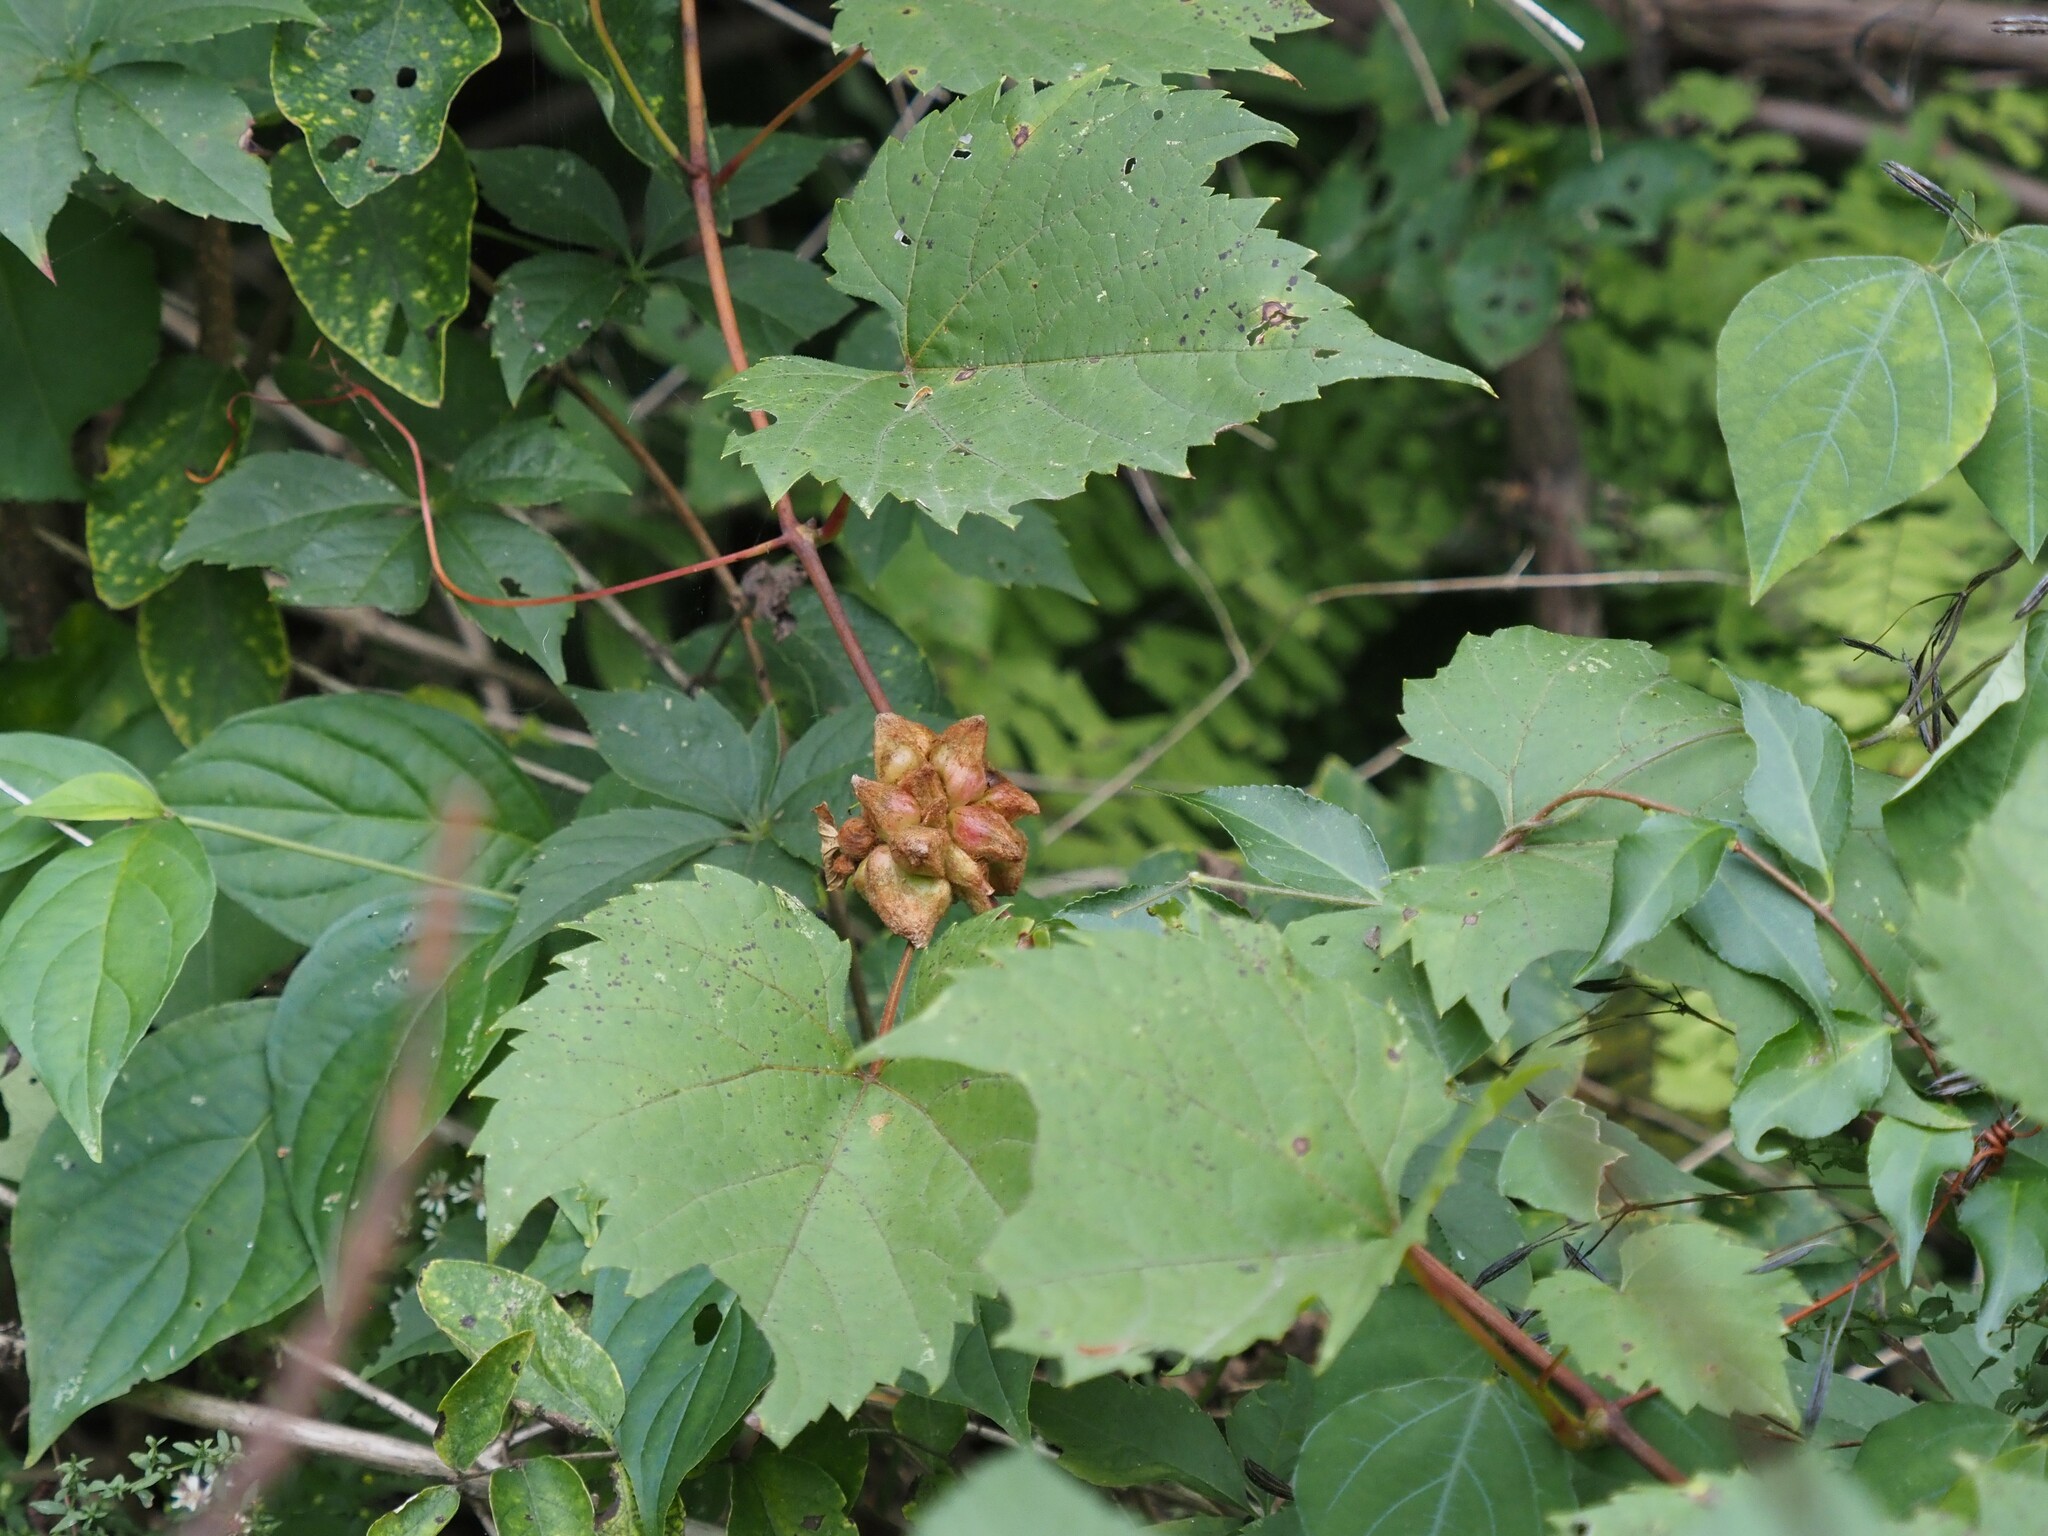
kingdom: Animalia
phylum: Arthropoda
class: Insecta
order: Diptera
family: Cecidomyiidae
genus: Ampelomyia
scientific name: Ampelomyia vitiscoryloides
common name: Grape filbert gall
